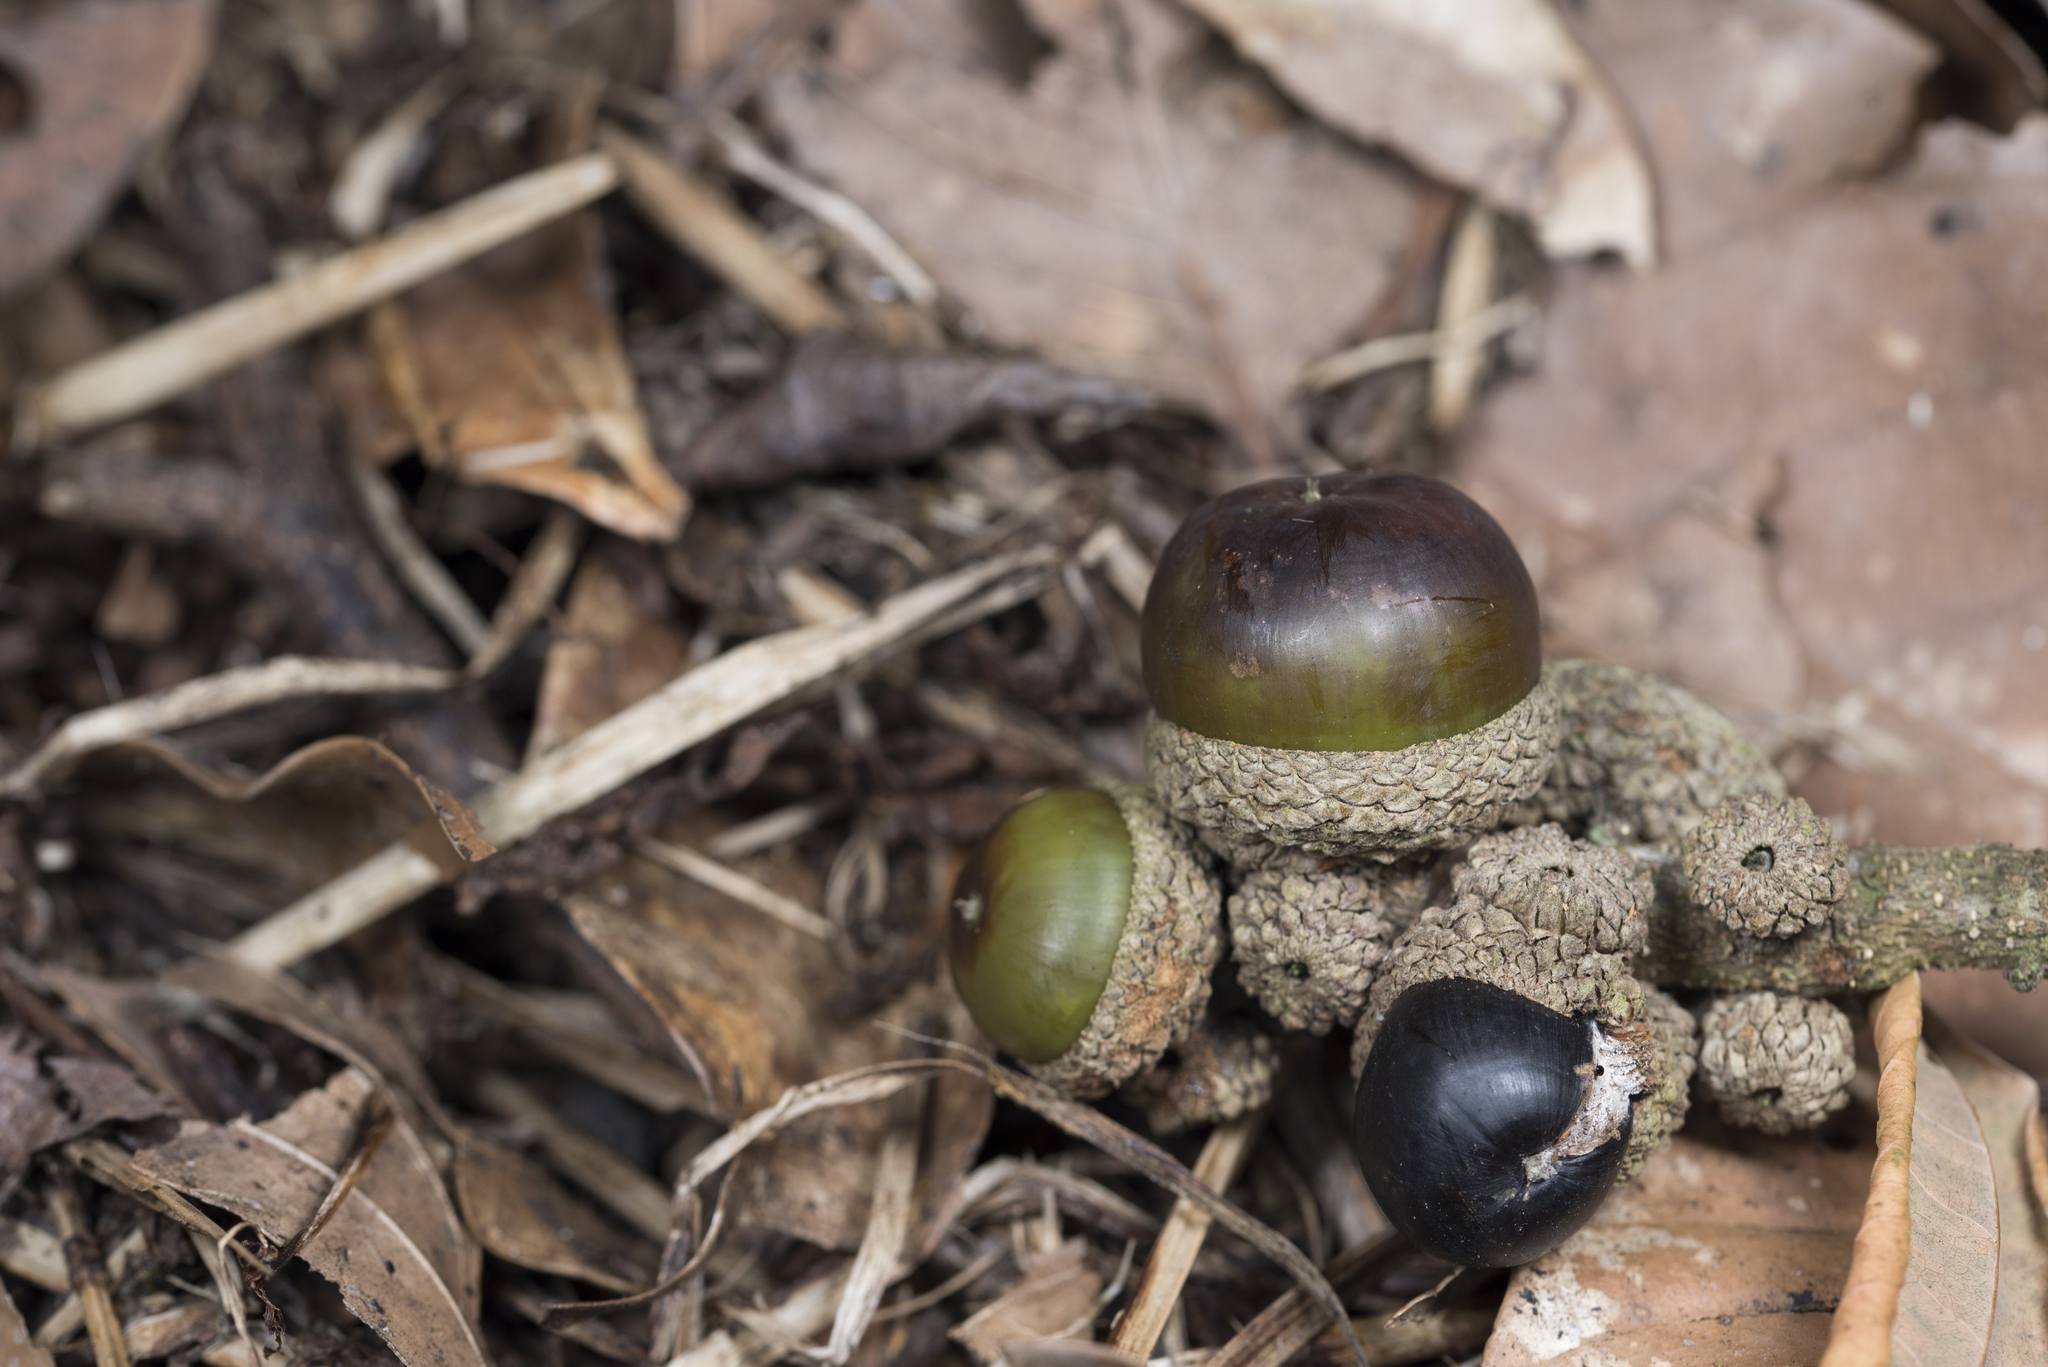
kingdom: Plantae
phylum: Tracheophyta
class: Magnoliopsida
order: Fagales
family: Fagaceae
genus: Lithocarpus
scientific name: Lithocarpus kawakamii
